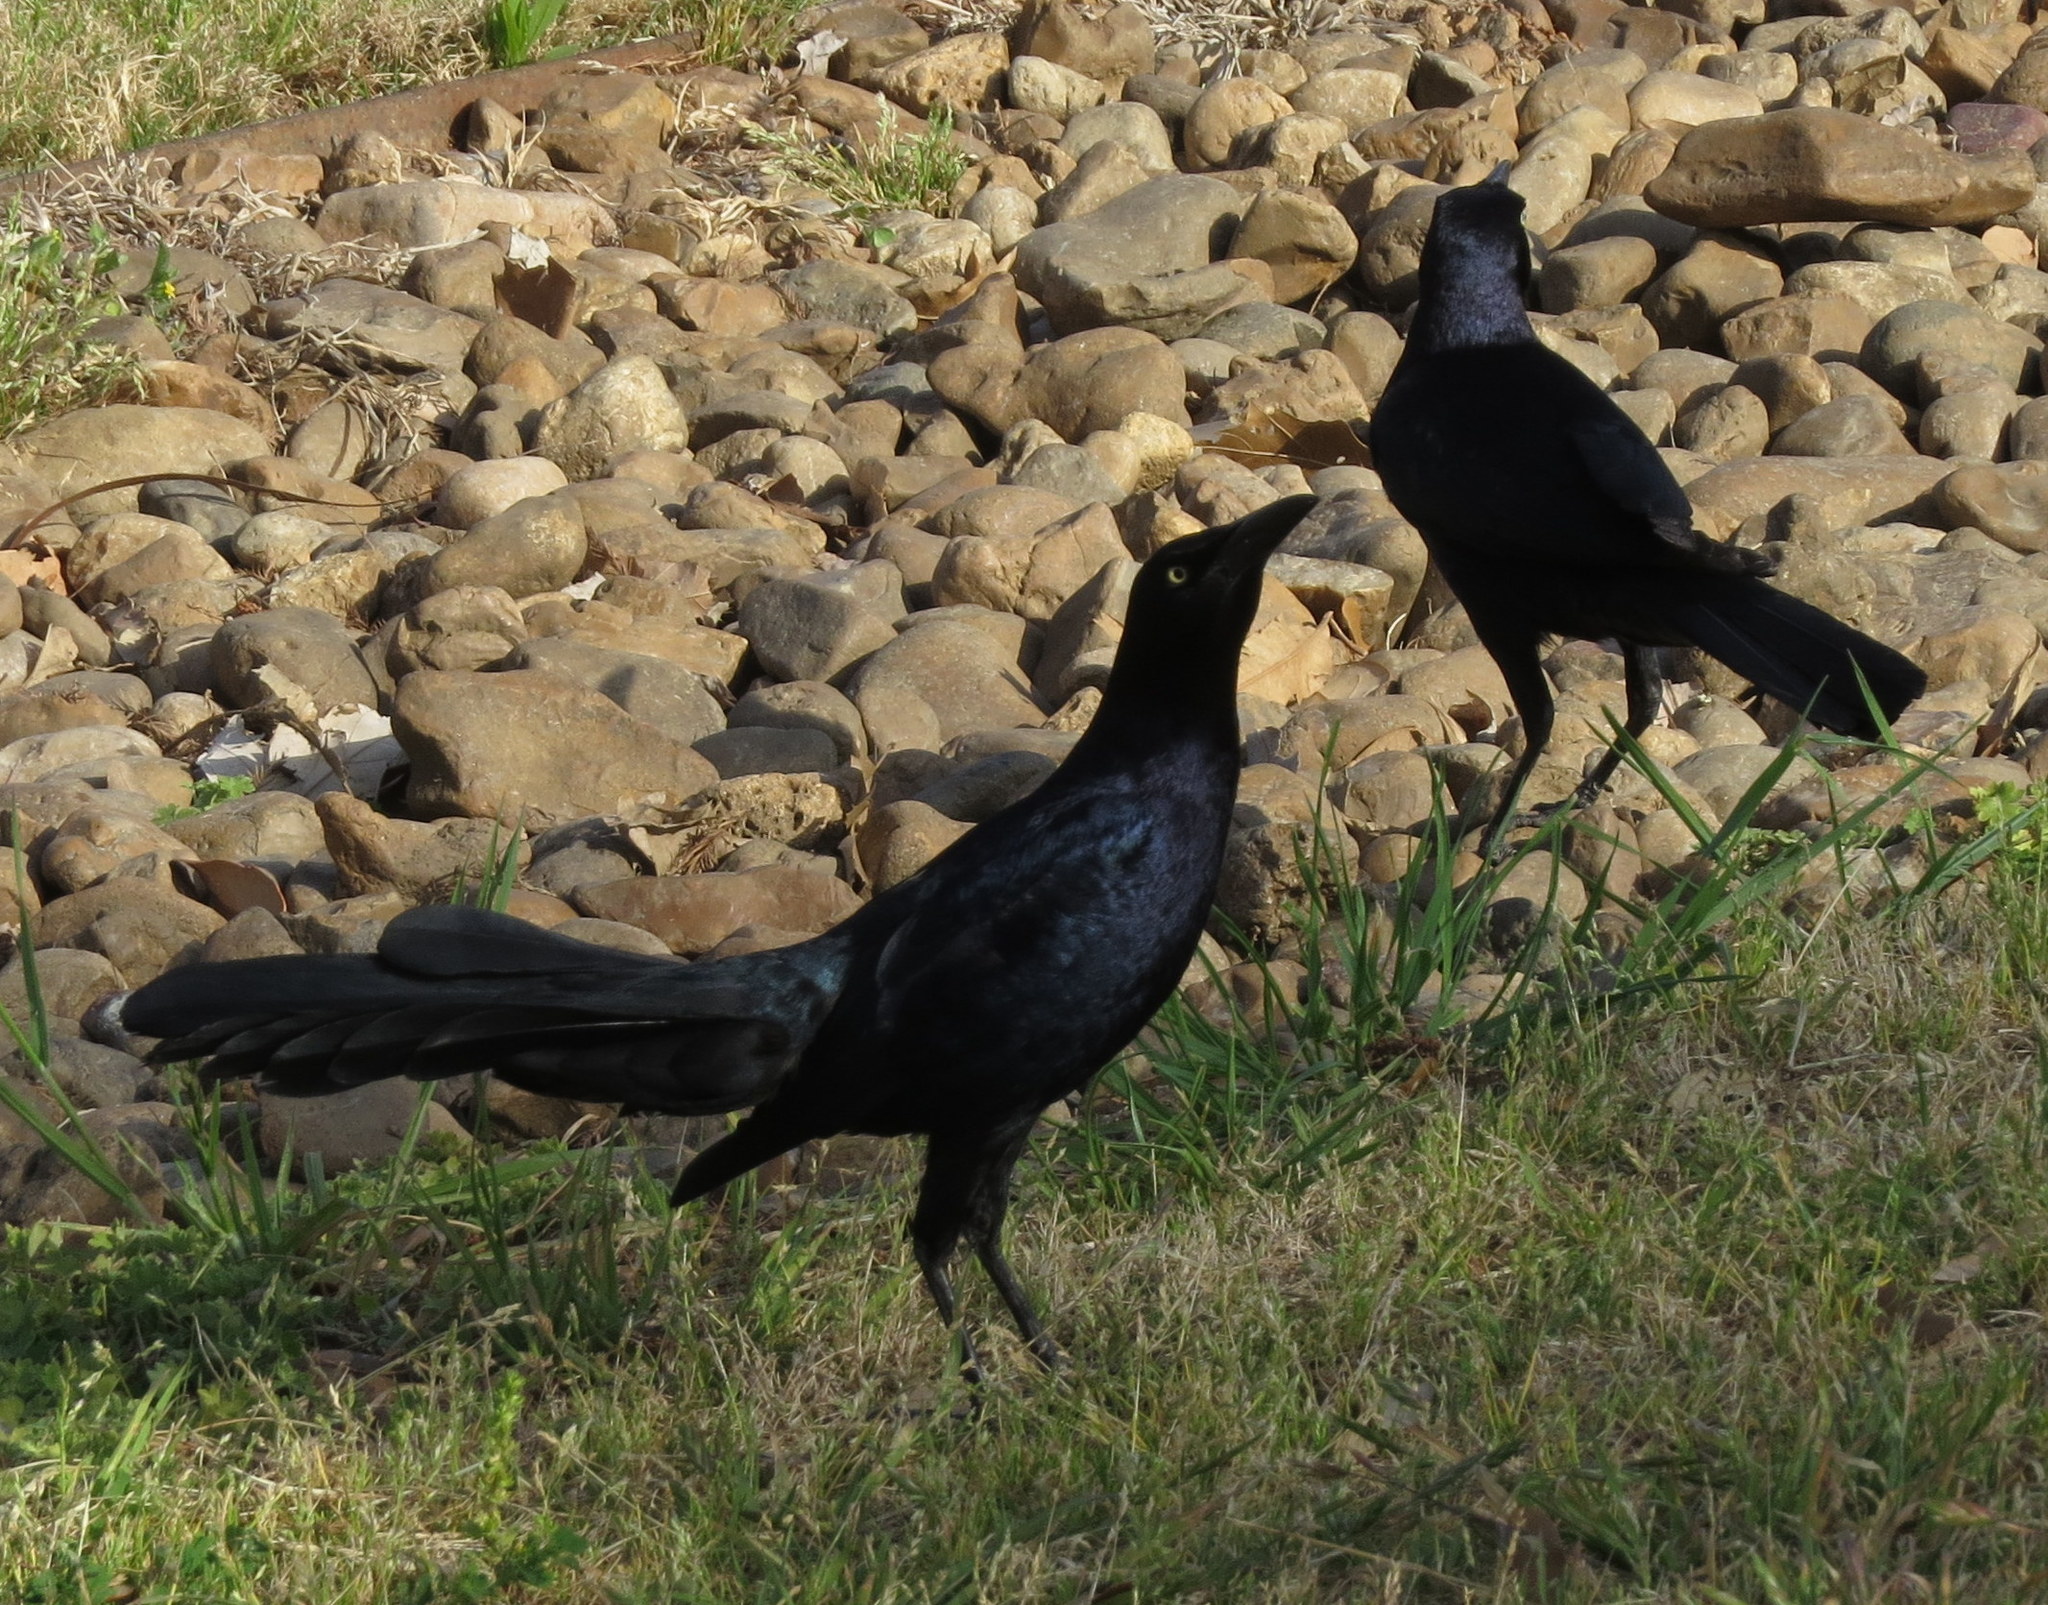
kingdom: Animalia
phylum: Chordata
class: Aves
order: Passeriformes
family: Icteridae
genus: Quiscalus
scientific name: Quiscalus mexicanus
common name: Great-tailed grackle
